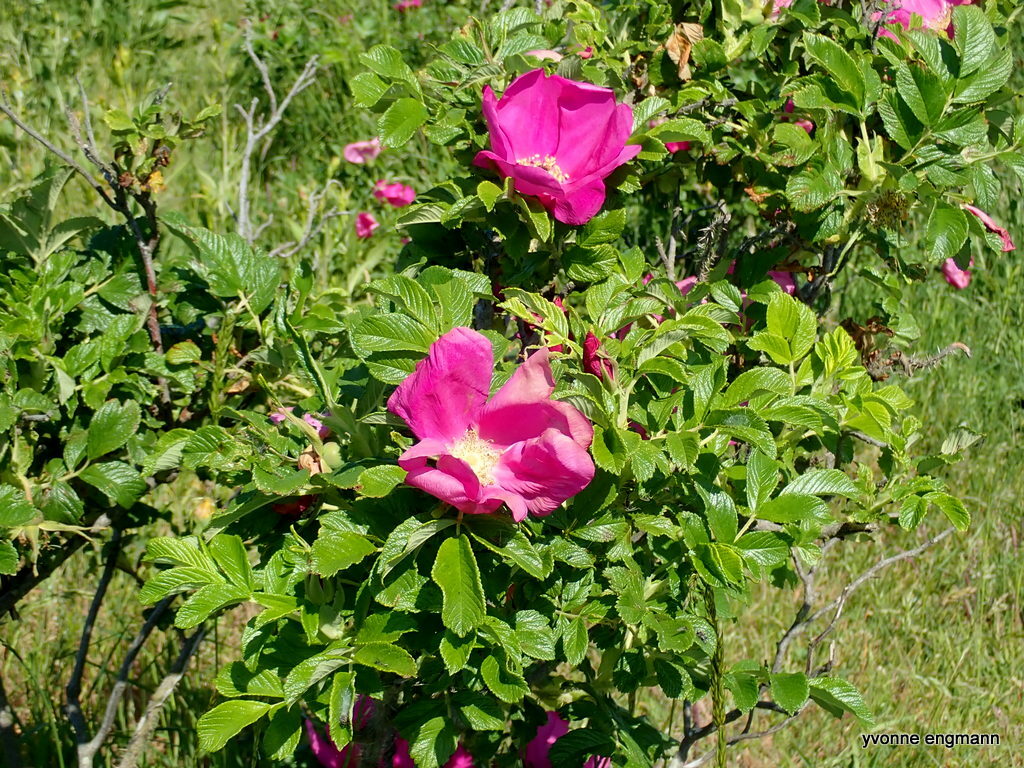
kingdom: Plantae
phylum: Tracheophyta
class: Magnoliopsida
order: Rosales
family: Rosaceae
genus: Rosa
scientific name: Rosa rugosa
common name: Japanese rose
